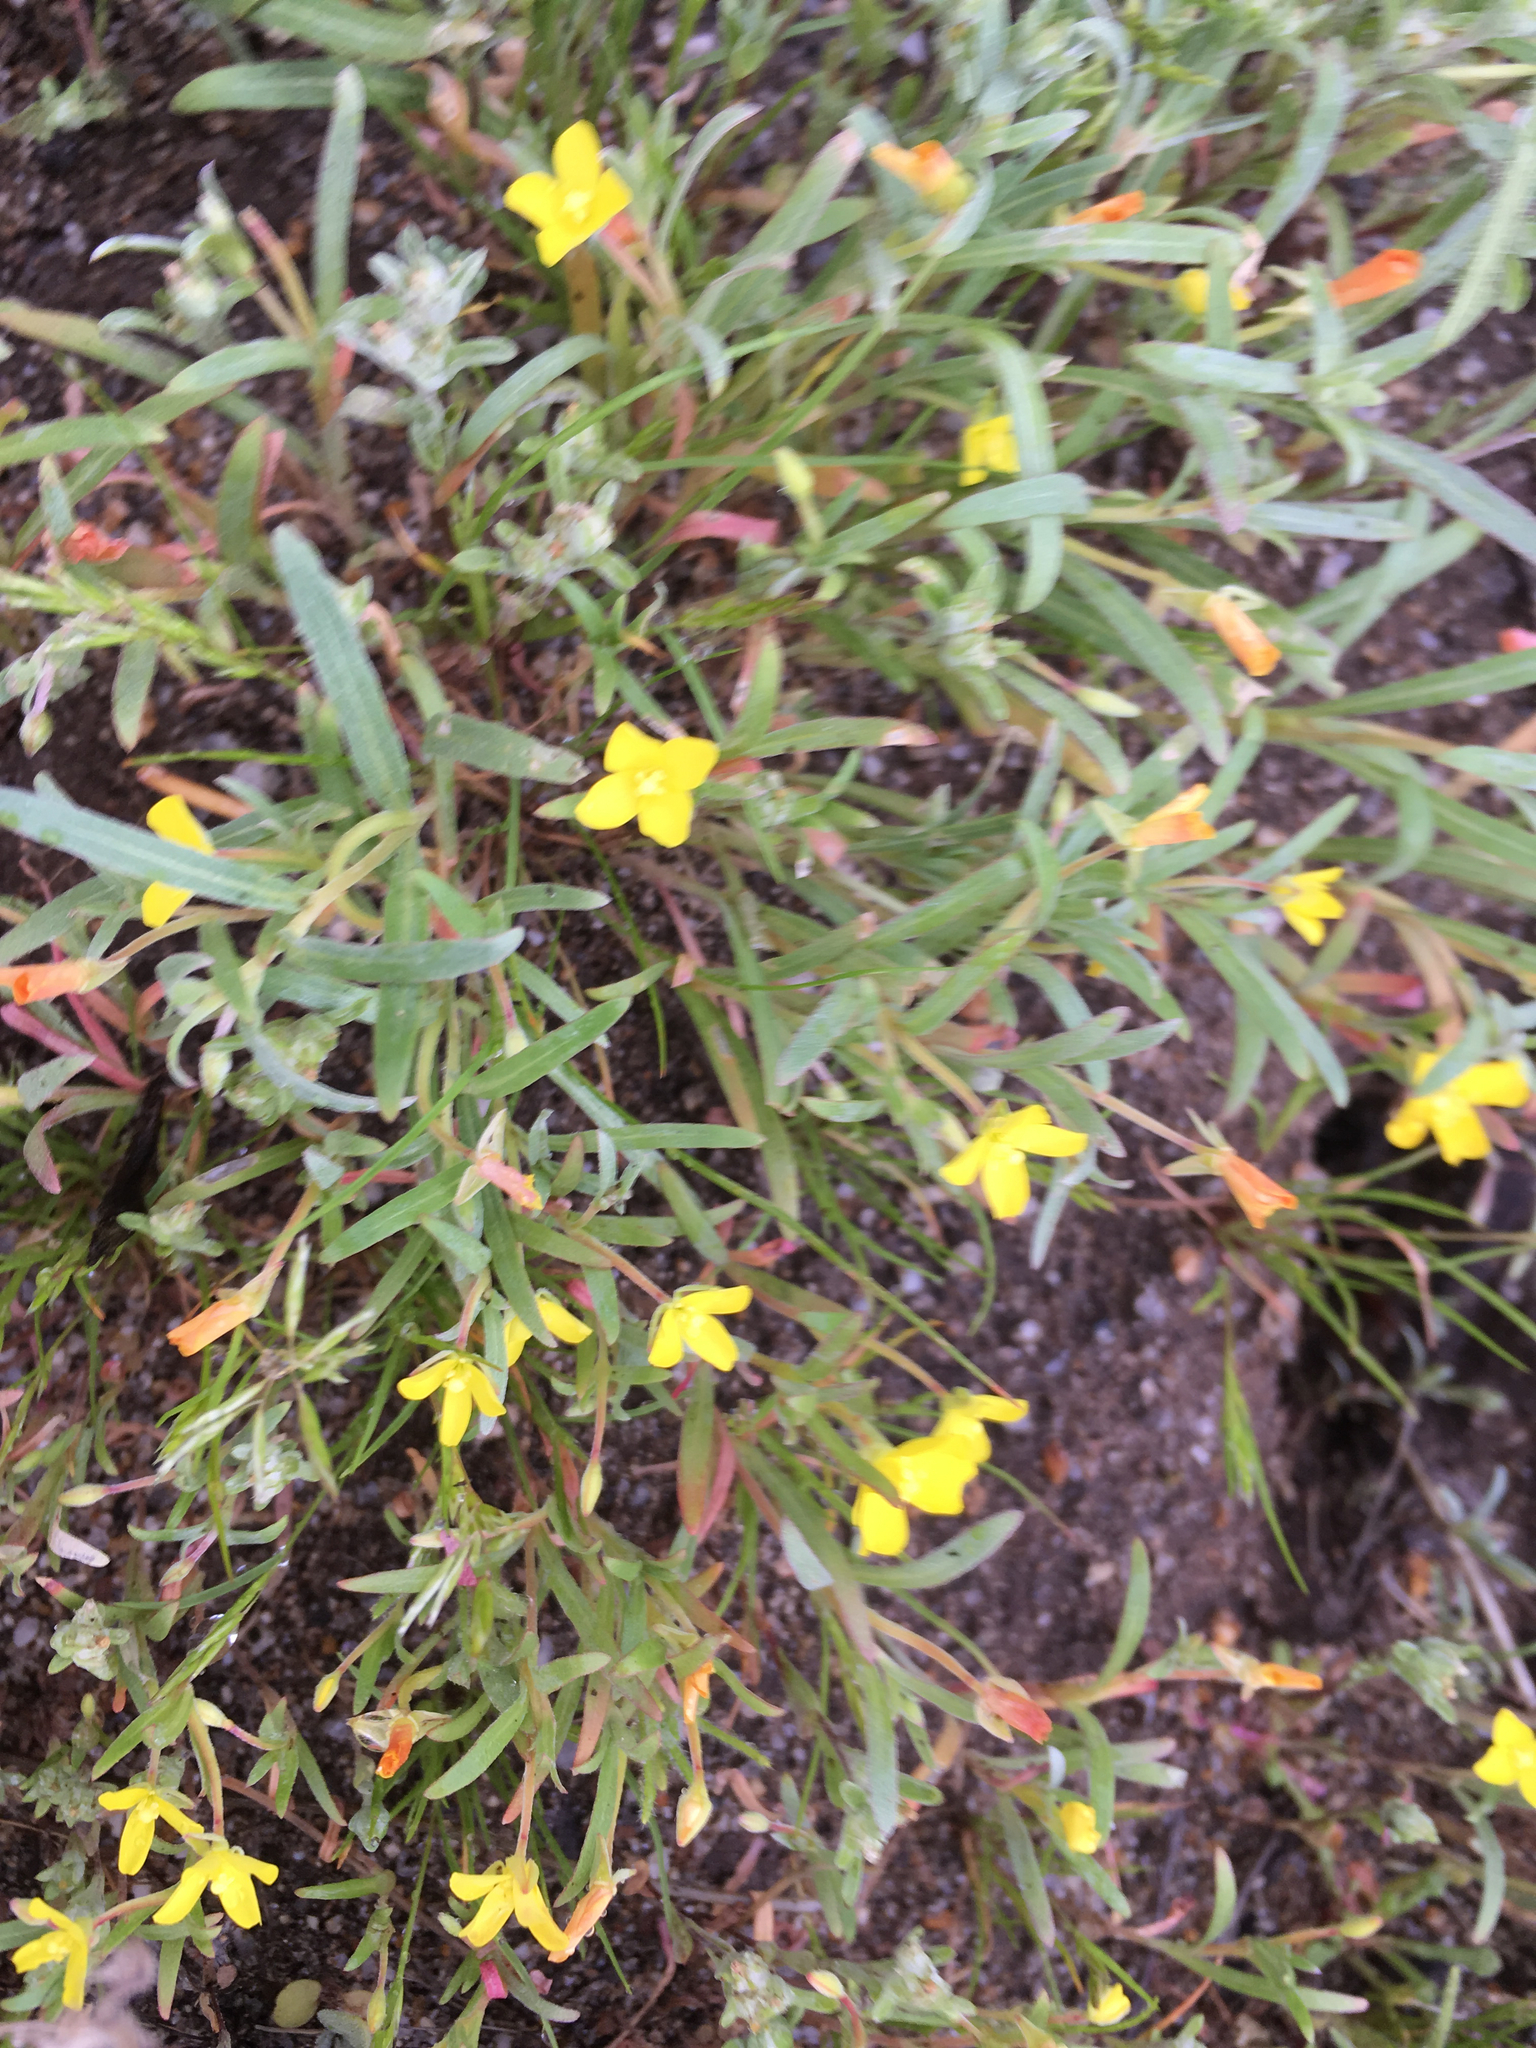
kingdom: Plantae
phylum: Tracheophyta
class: Magnoliopsida
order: Myrtales
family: Onagraceae
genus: Camissoniopsis
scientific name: Camissoniopsis pallida
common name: Paleyellow suncup
